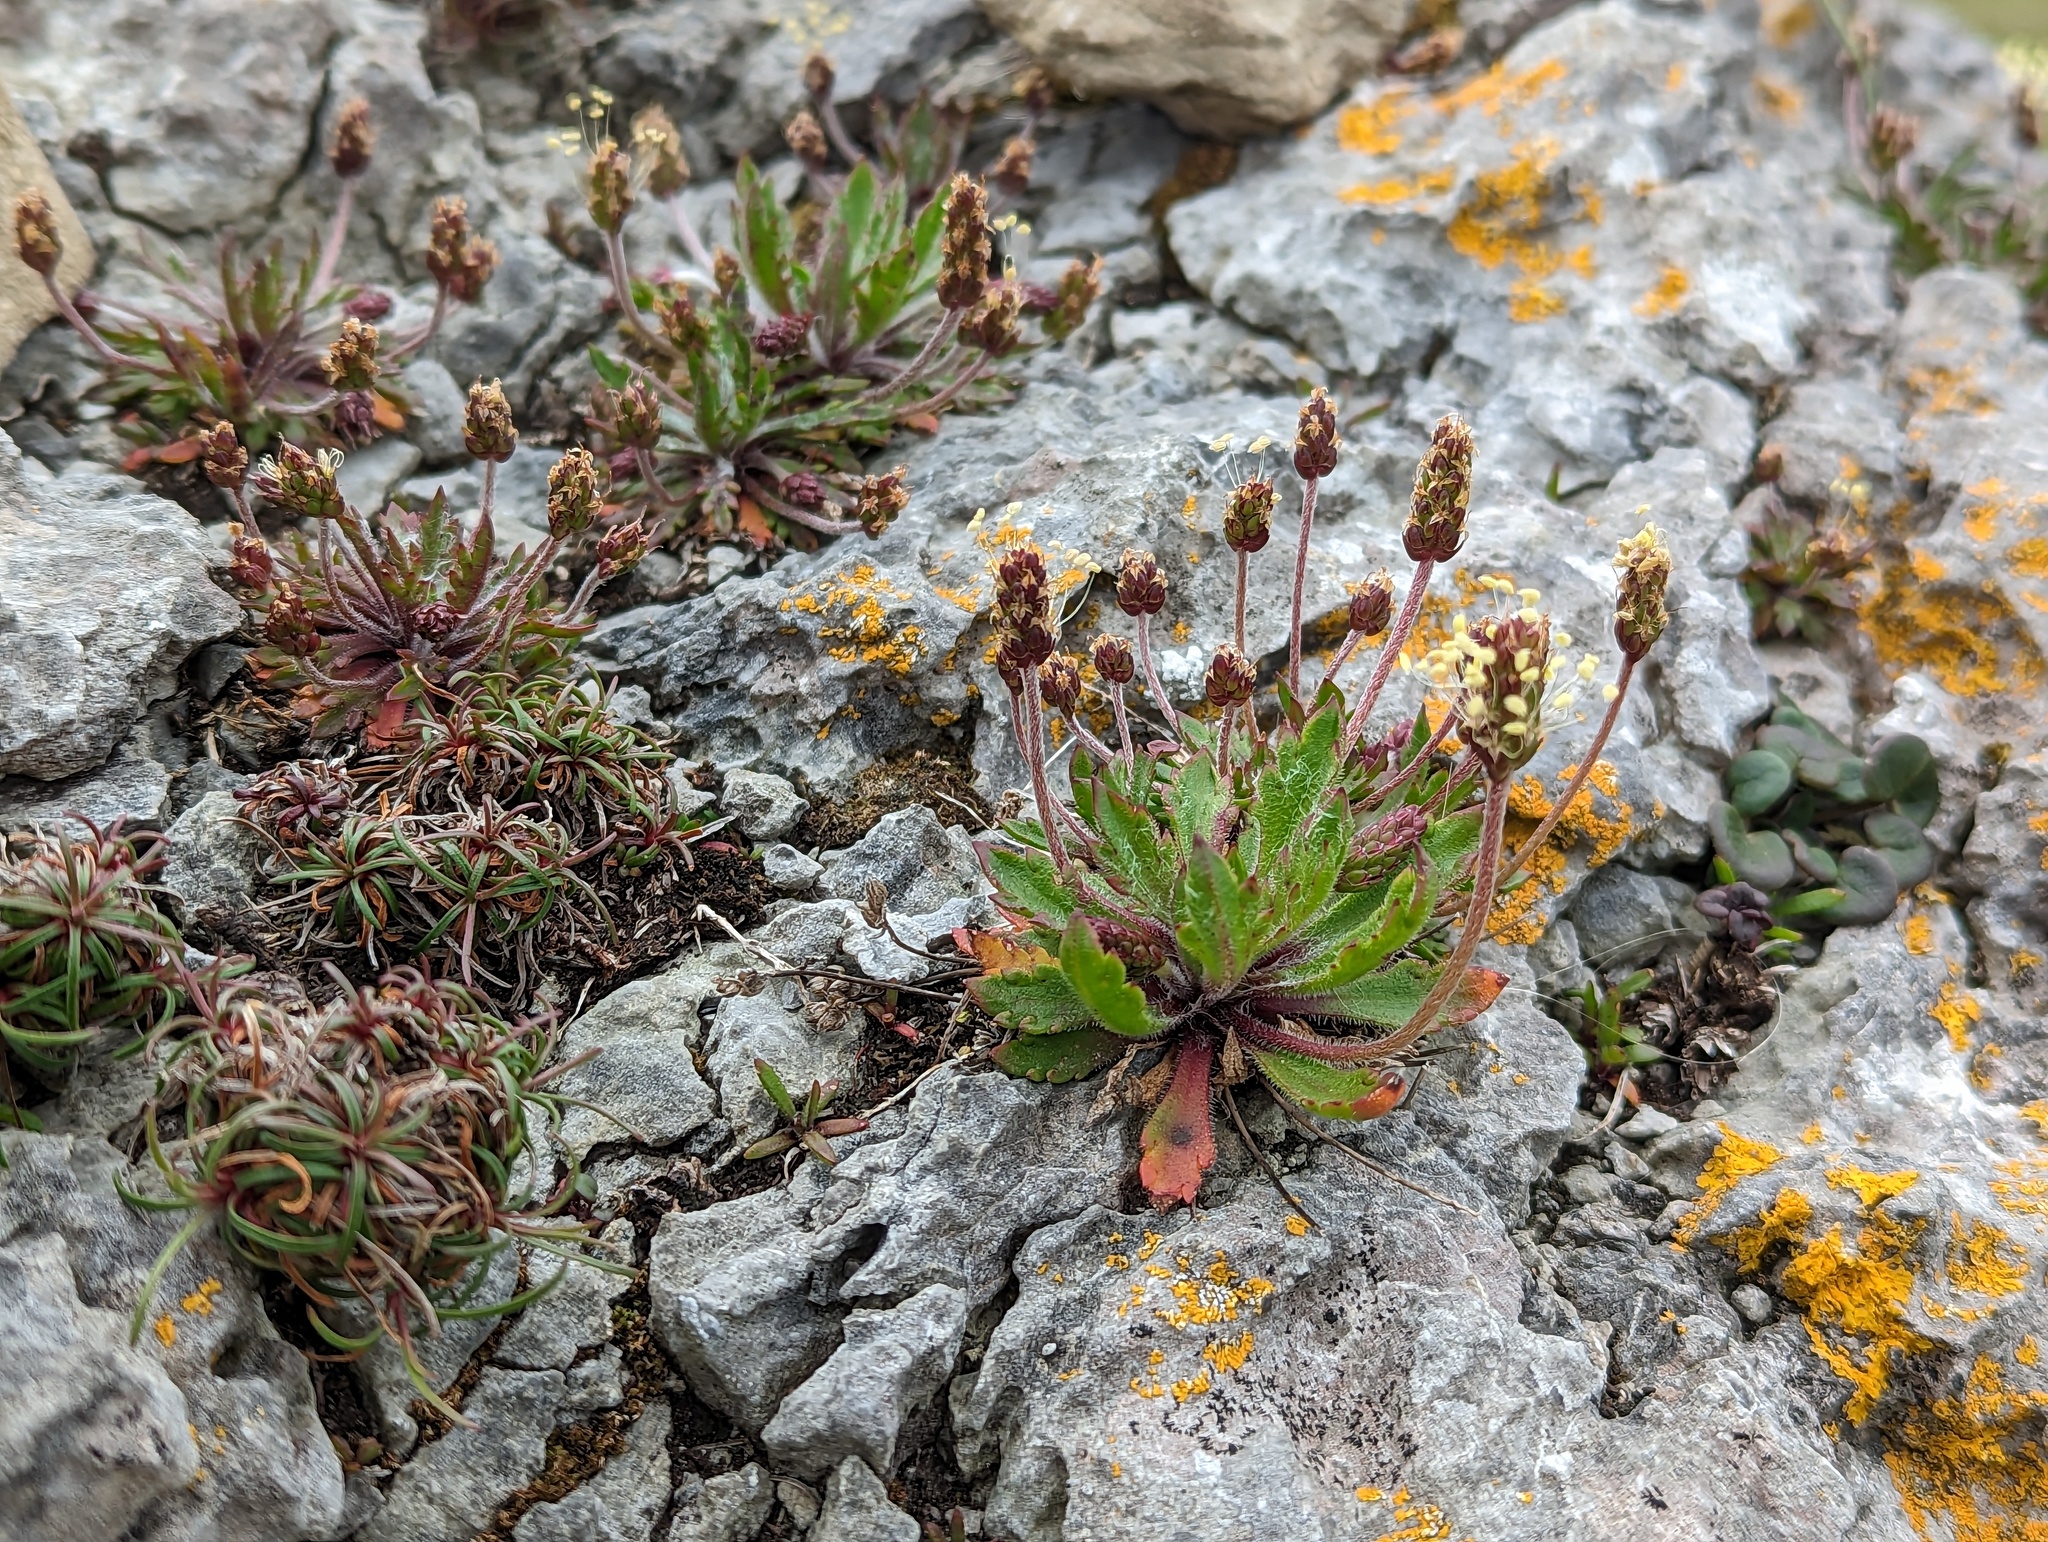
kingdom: Plantae
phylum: Tracheophyta
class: Magnoliopsida
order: Lamiales
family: Plantaginaceae
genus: Plantago
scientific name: Plantago coronopus
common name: Buck's-horn plantain
